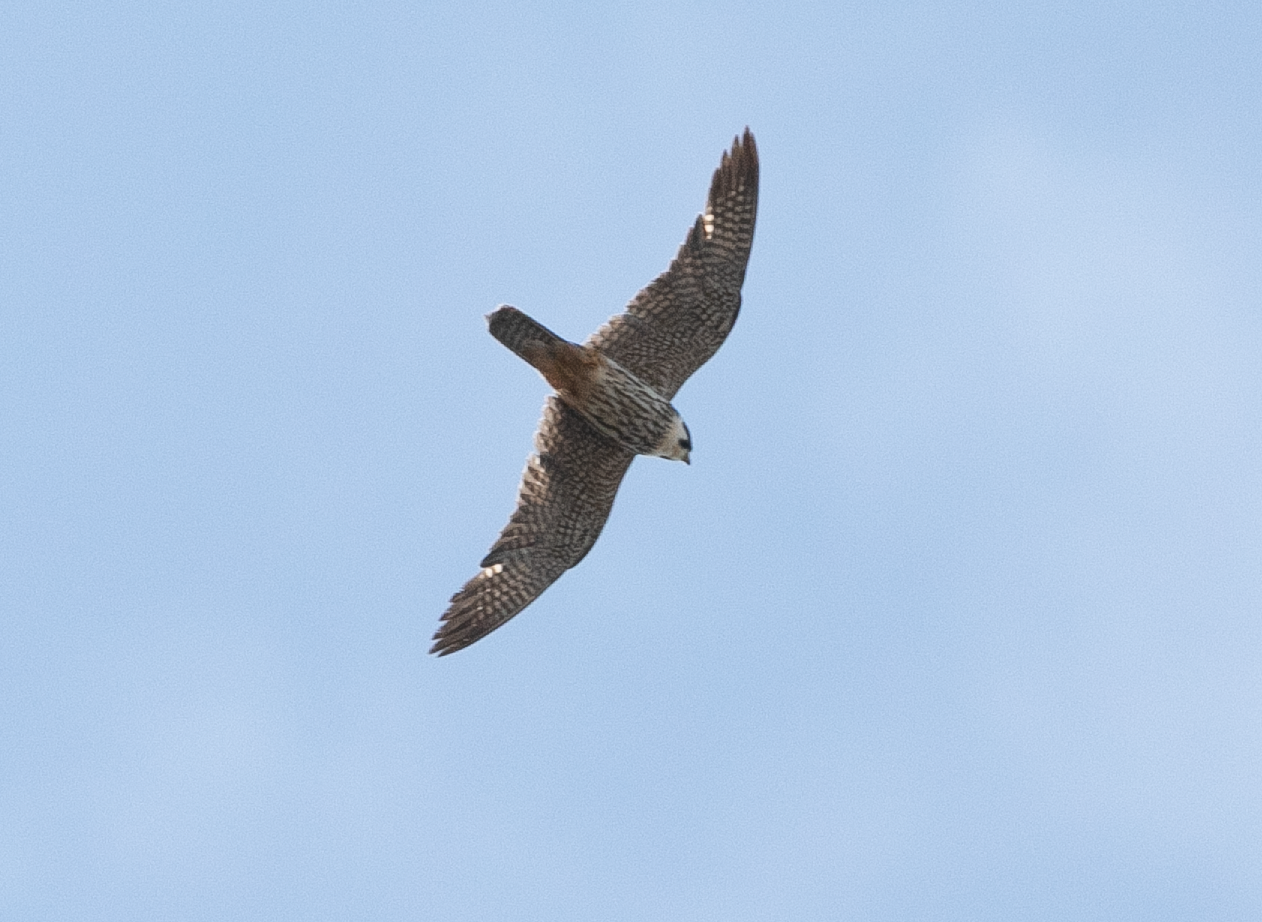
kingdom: Animalia
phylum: Chordata
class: Aves
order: Falconiformes
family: Falconidae
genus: Falco
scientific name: Falco subbuteo
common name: Eurasian hobby
